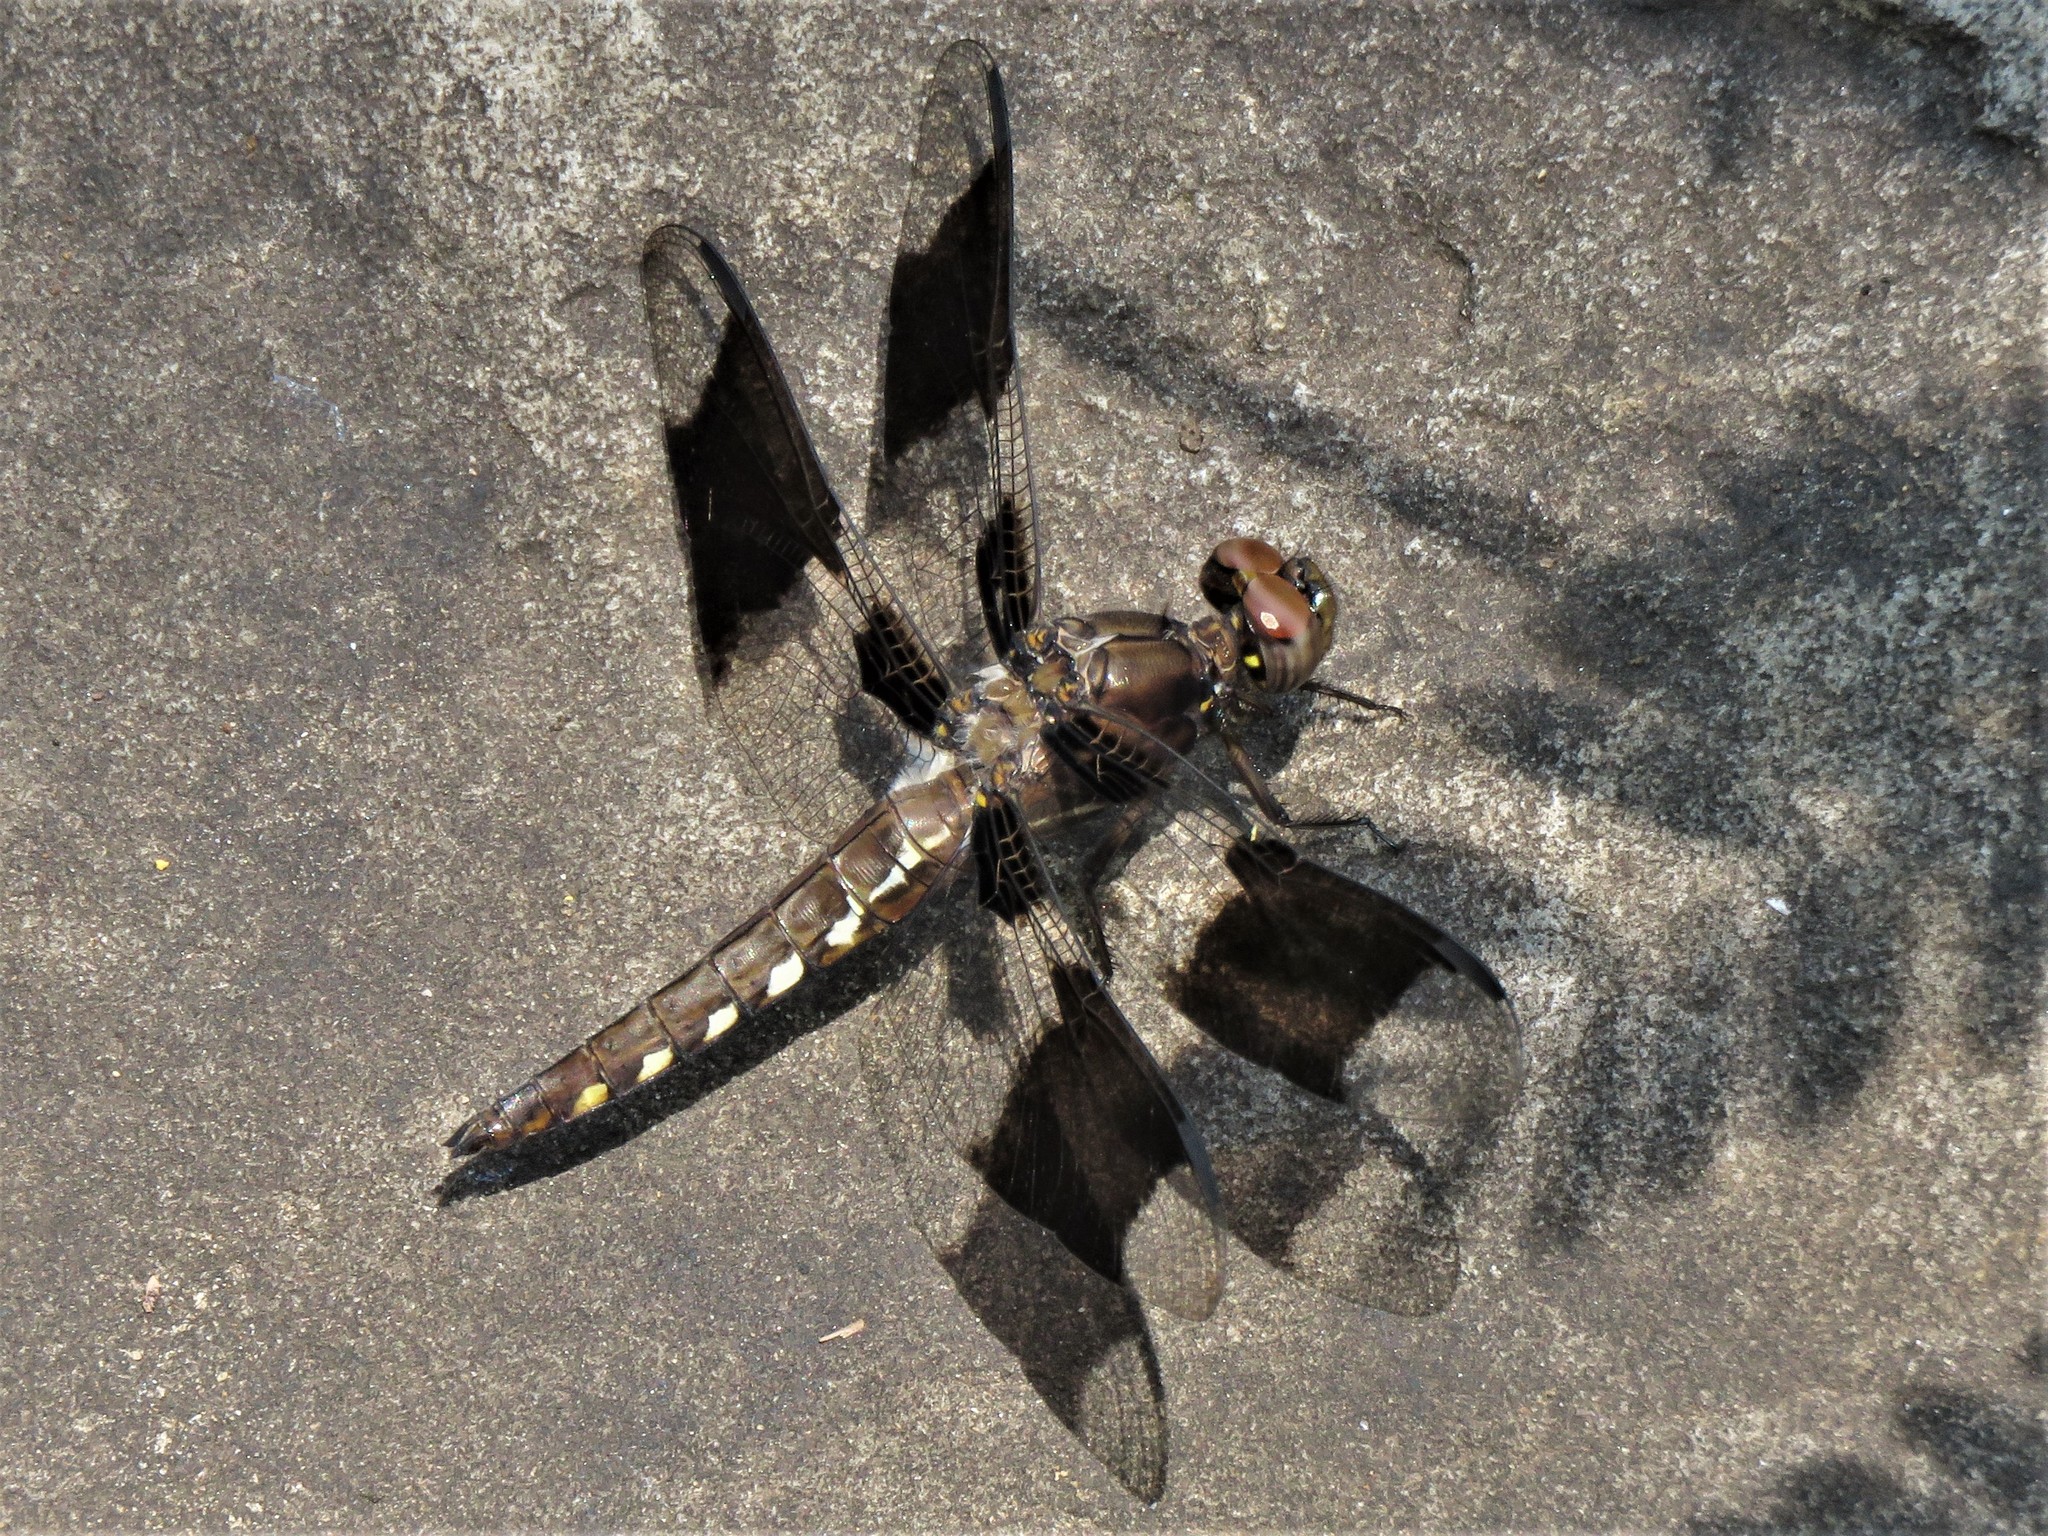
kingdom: Animalia
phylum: Arthropoda
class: Insecta
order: Odonata
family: Libellulidae
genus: Plathemis
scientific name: Plathemis lydia
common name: Common whitetail
